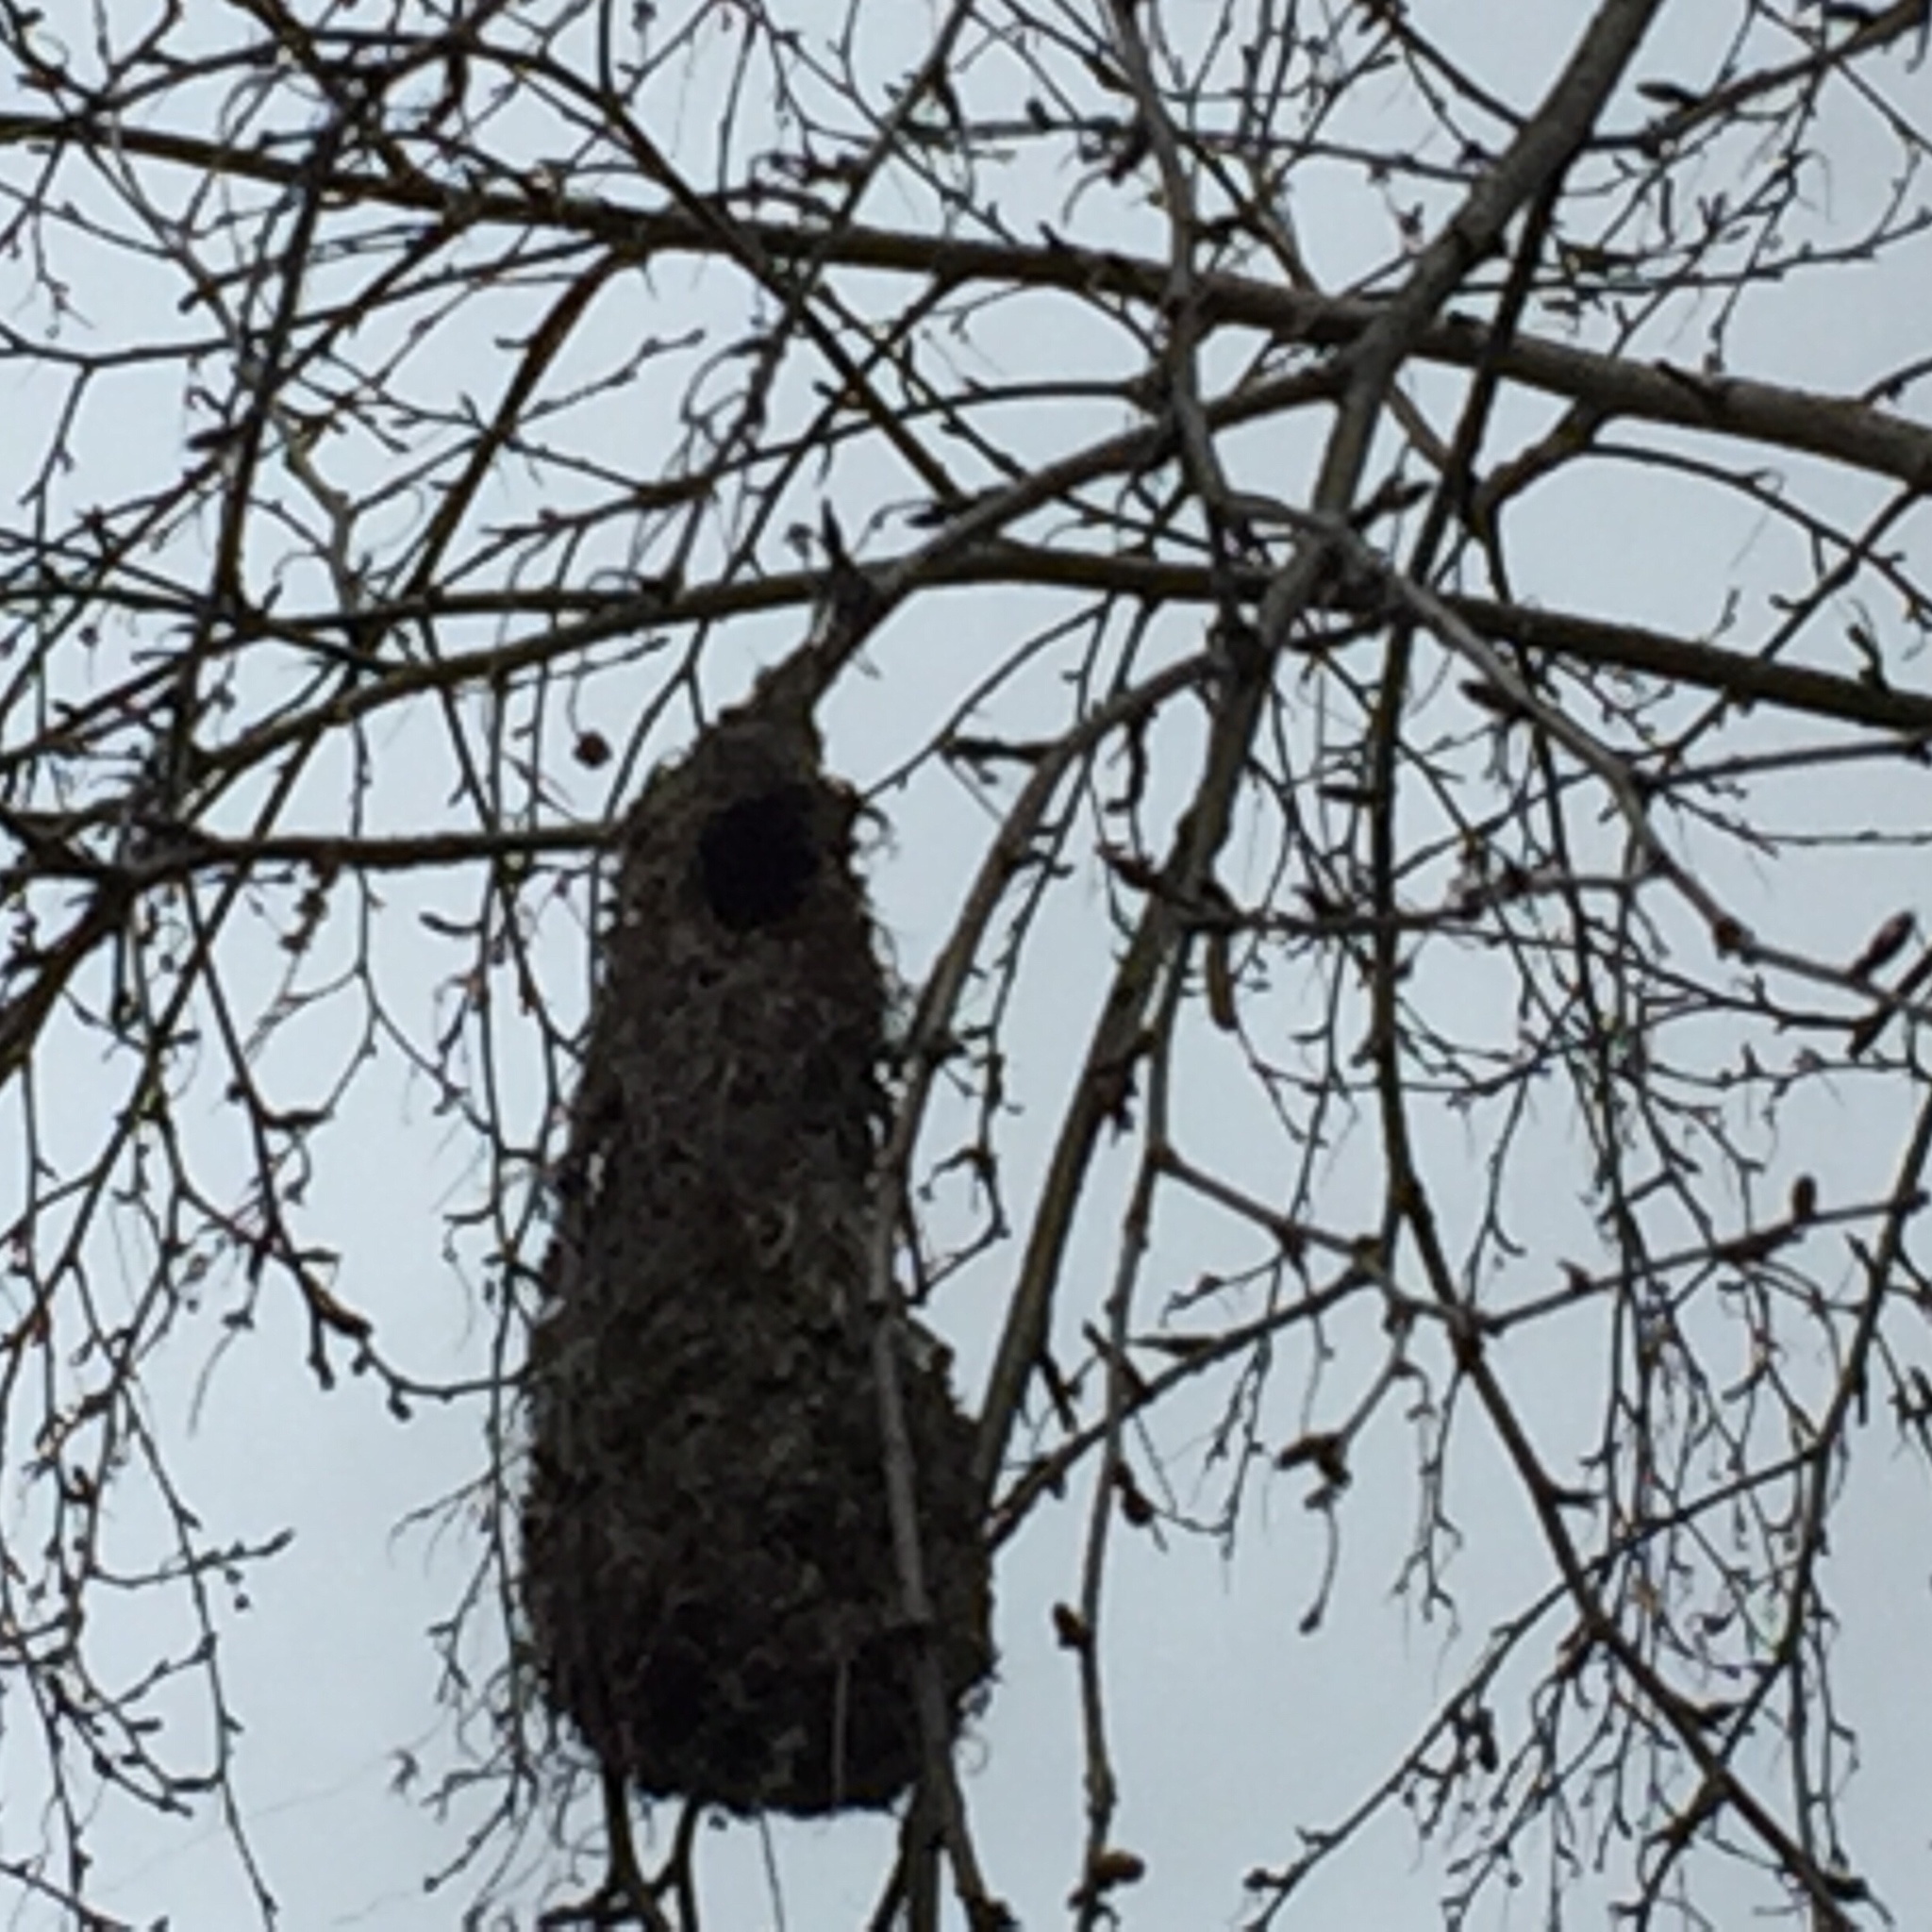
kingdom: Animalia
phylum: Chordata
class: Aves
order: Passeriformes
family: Aegithalidae
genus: Psaltriparus
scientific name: Psaltriparus minimus
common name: American bushtit
